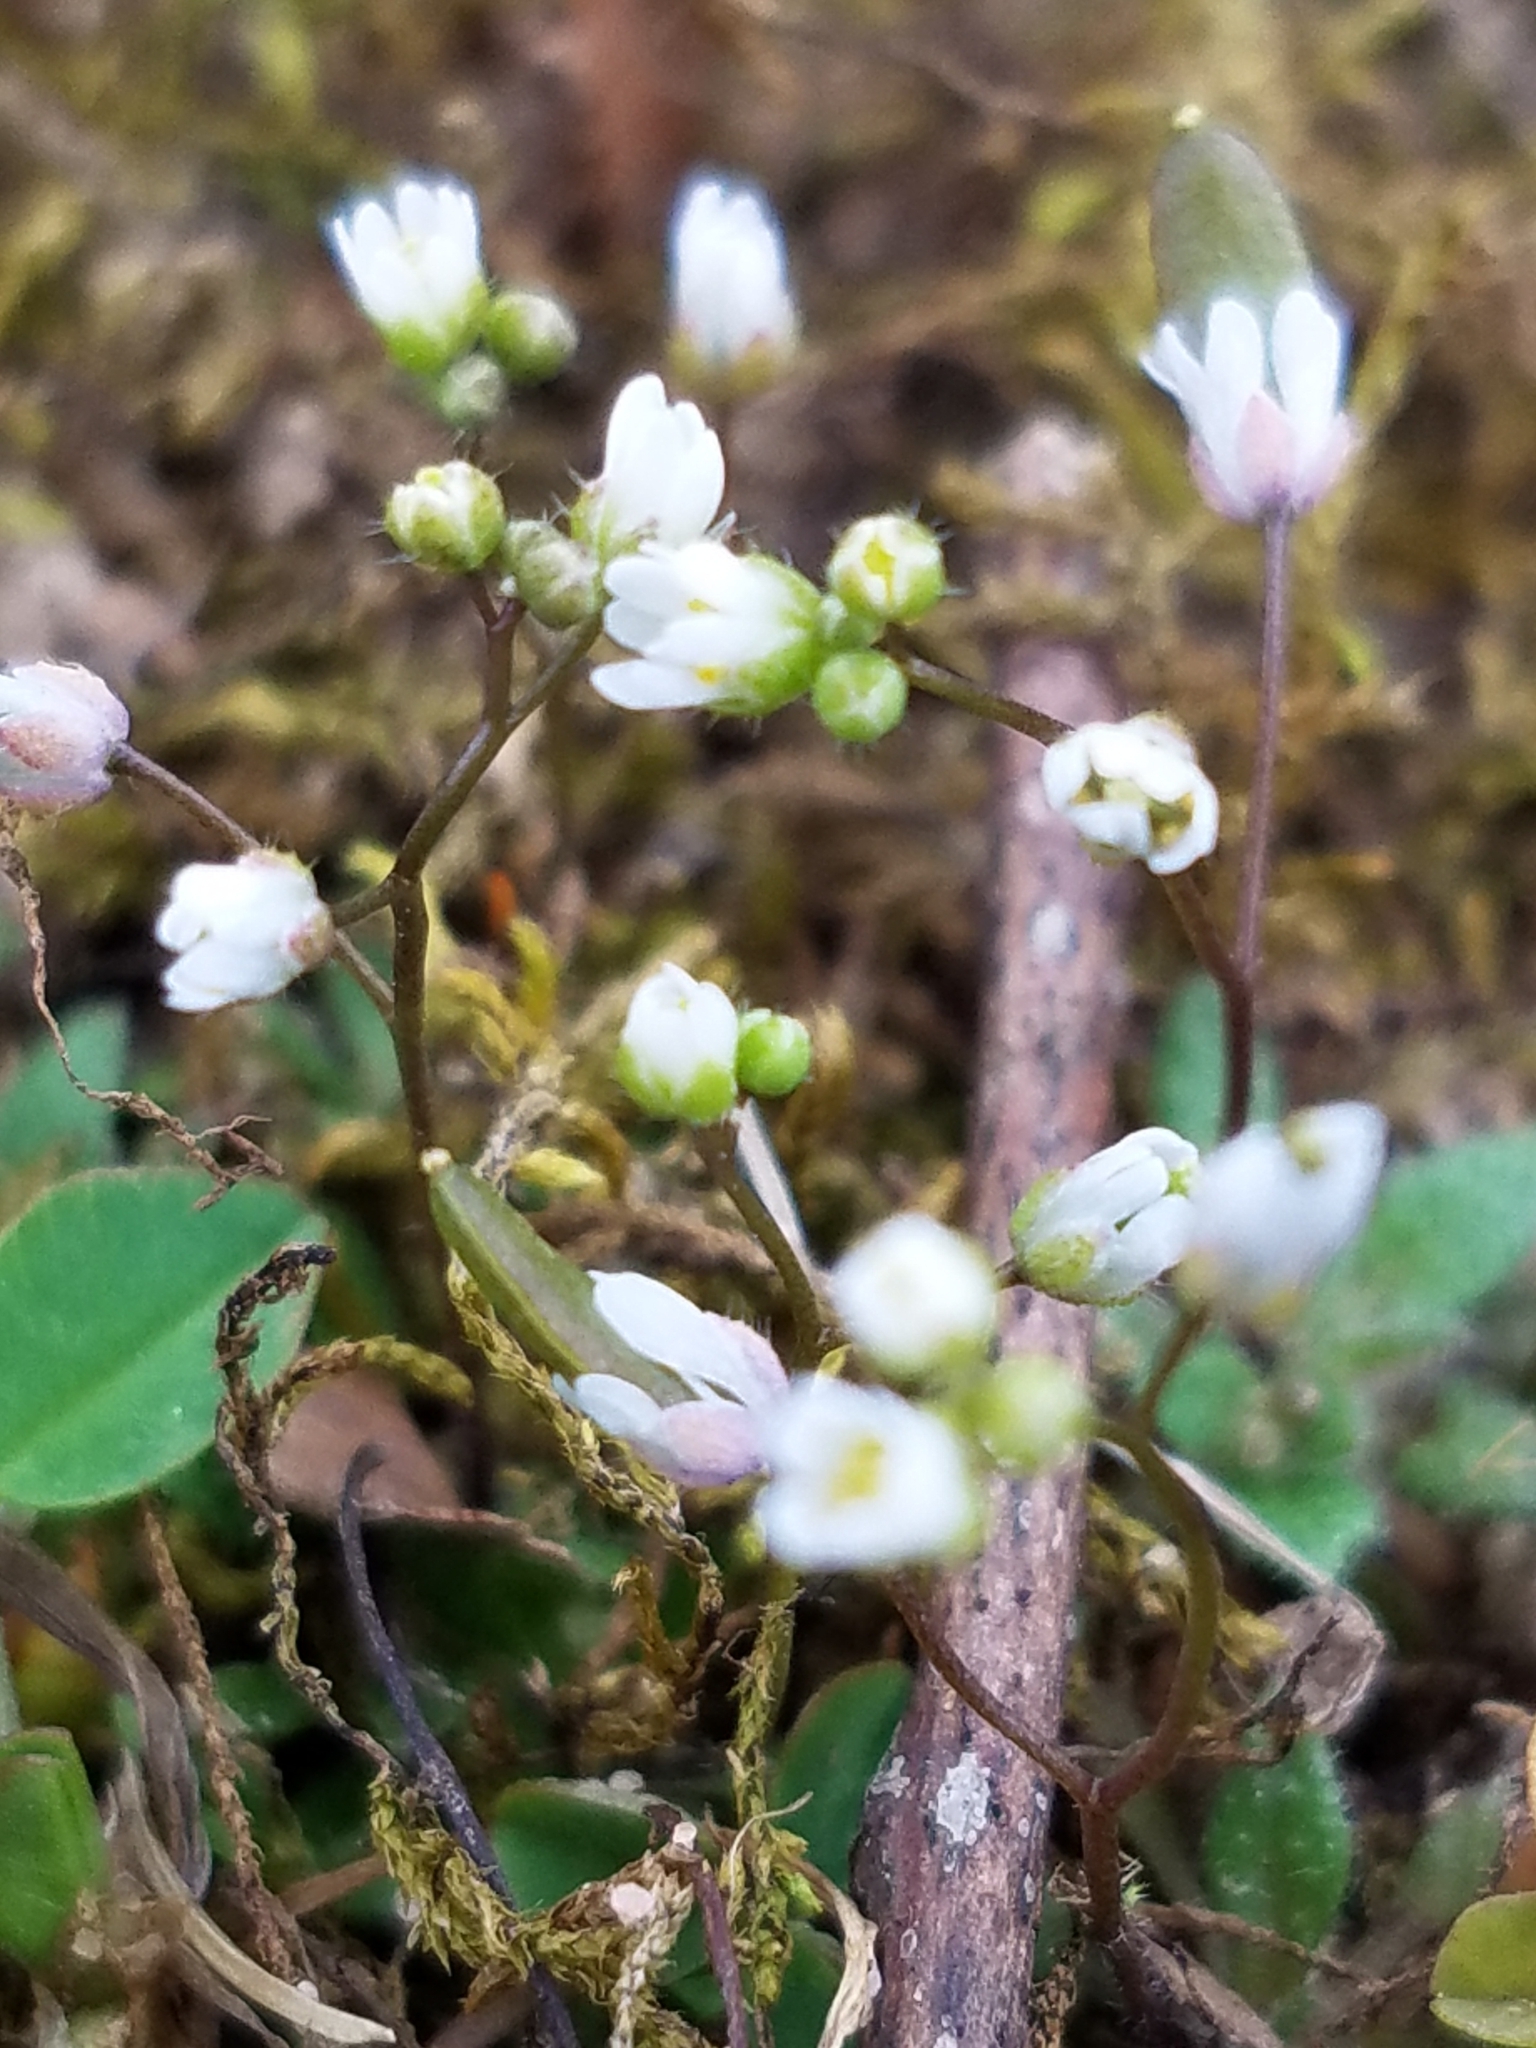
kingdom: Plantae
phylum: Tracheophyta
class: Magnoliopsida
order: Brassicales
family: Brassicaceae
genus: Draba
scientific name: Draba verna
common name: Spring draba
